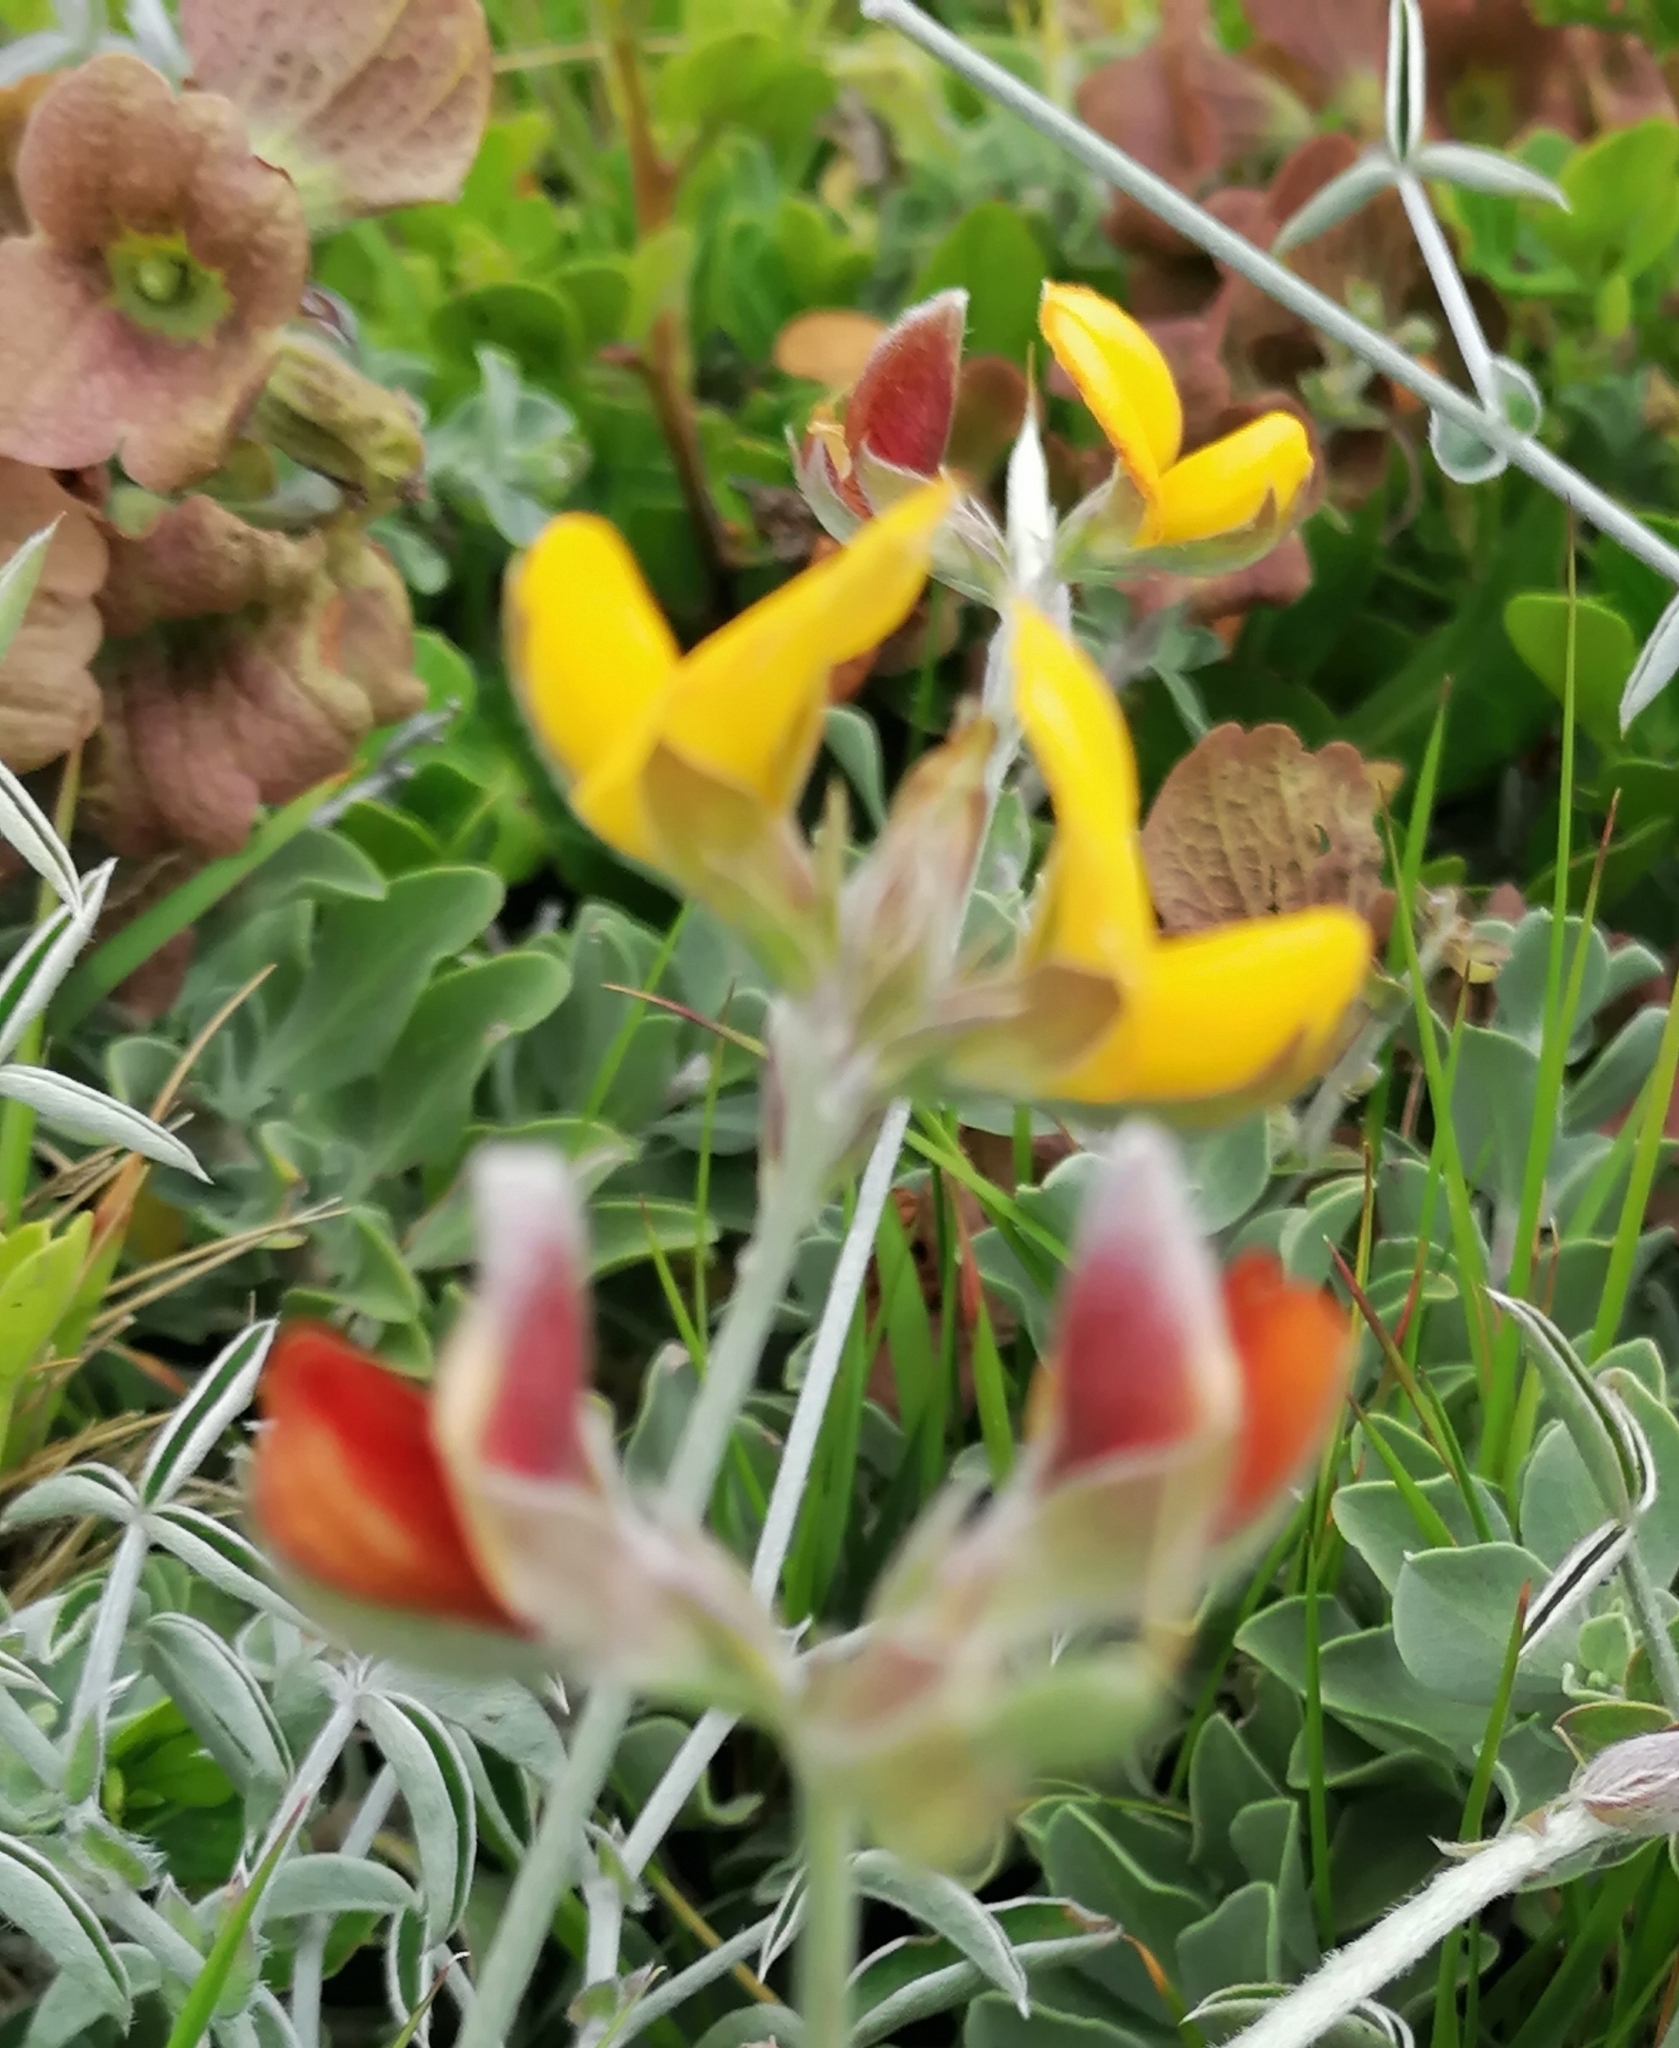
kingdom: Plantae
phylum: Tracheophyta
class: Magnoliopsida
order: Fabales
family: Fabaceae
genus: Argyrolobium
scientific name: Argyrolobium lunare
